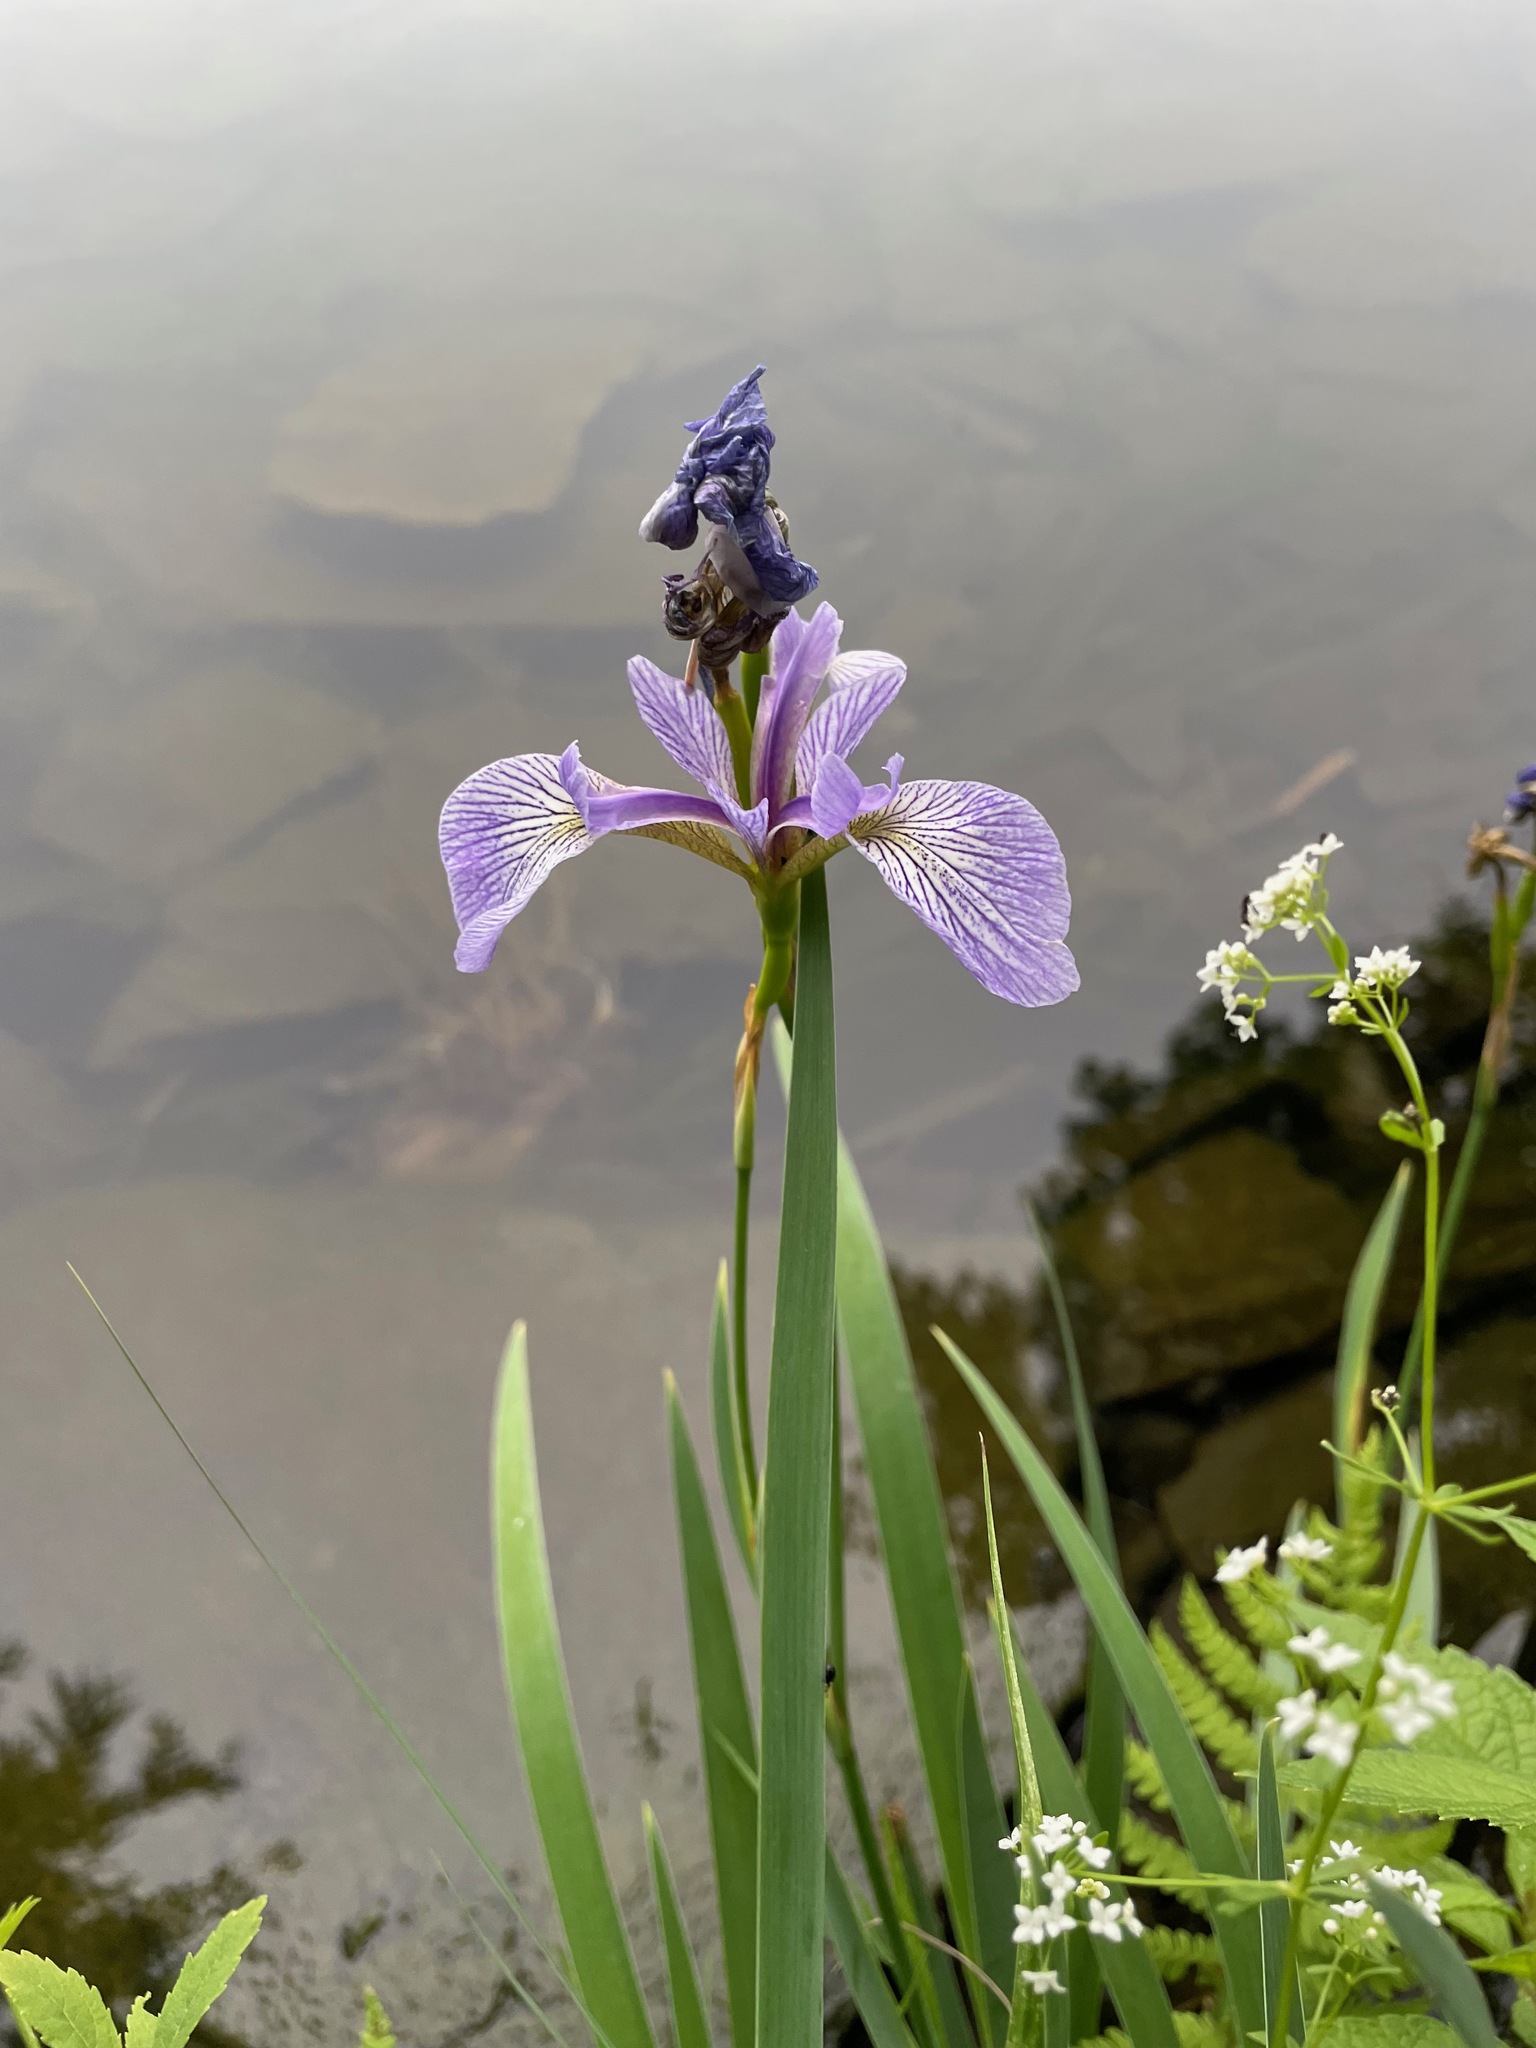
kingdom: Plantae
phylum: Tracheophyta
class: Liliopsida
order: Asparagales
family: Iridaceae
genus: Iris
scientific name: Iris versicolor
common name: Purple iris
